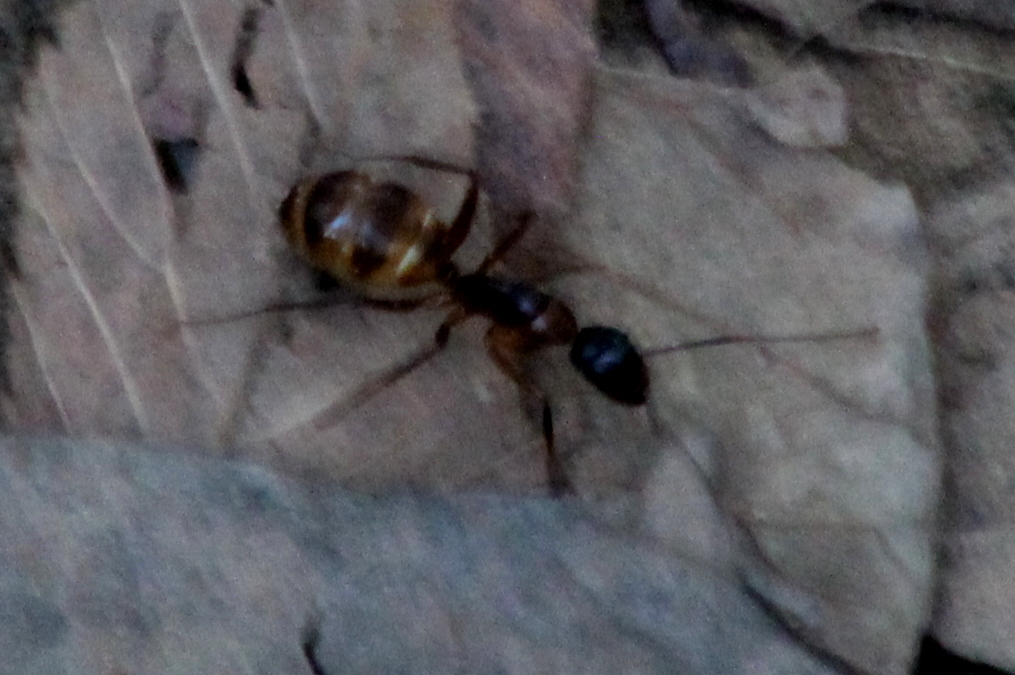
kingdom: Animalia
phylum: Arthropoda
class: Insecta
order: Hymenoptera
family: Formicidae
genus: Camponotus
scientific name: Camponotus americanus
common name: American carpenter ant
